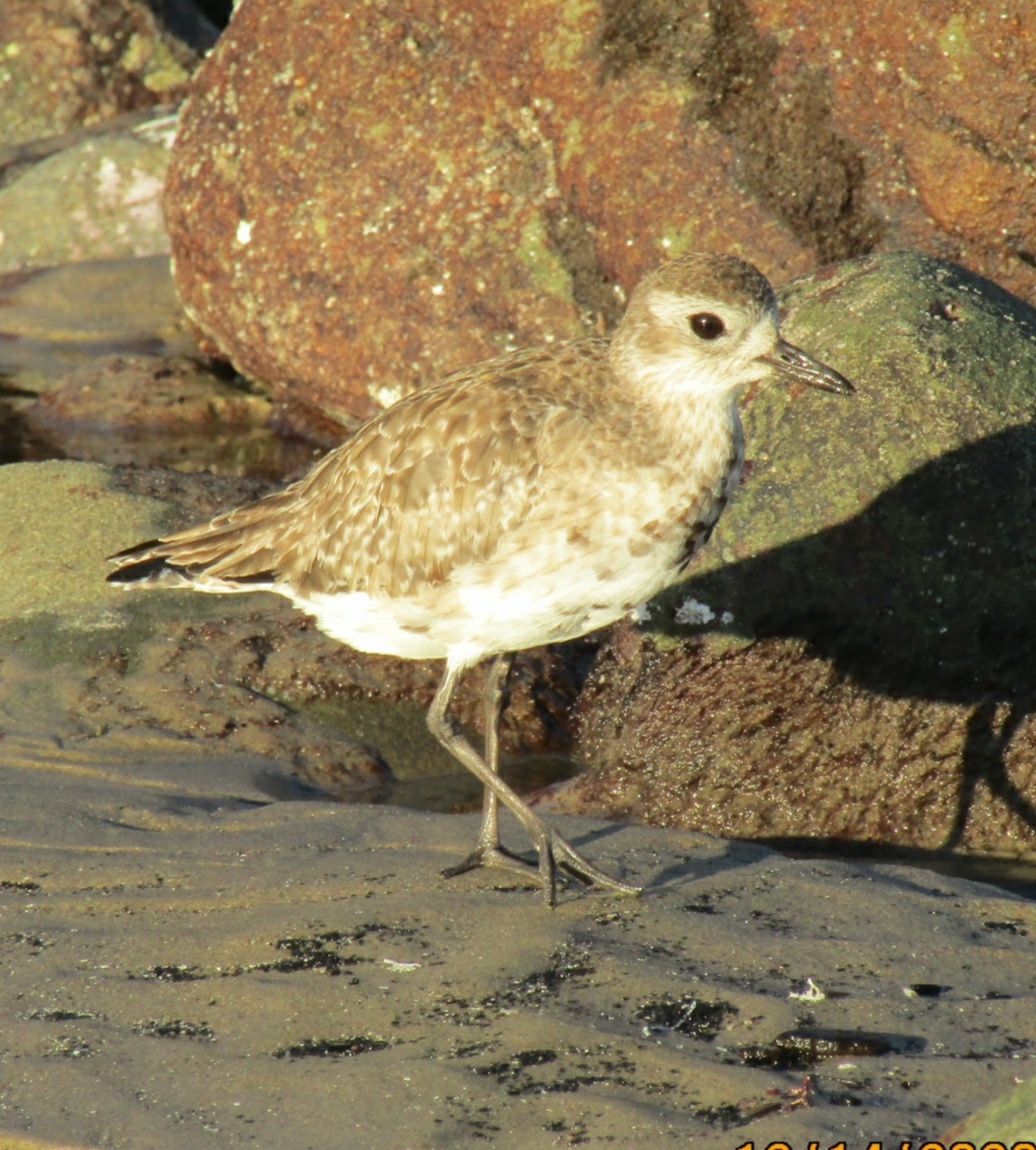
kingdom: Animalia
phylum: Chordata
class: Aves
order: Charadriiformes
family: Charadriidae
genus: Pluvialis
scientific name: Pluvialis squatarola
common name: Grey plover
